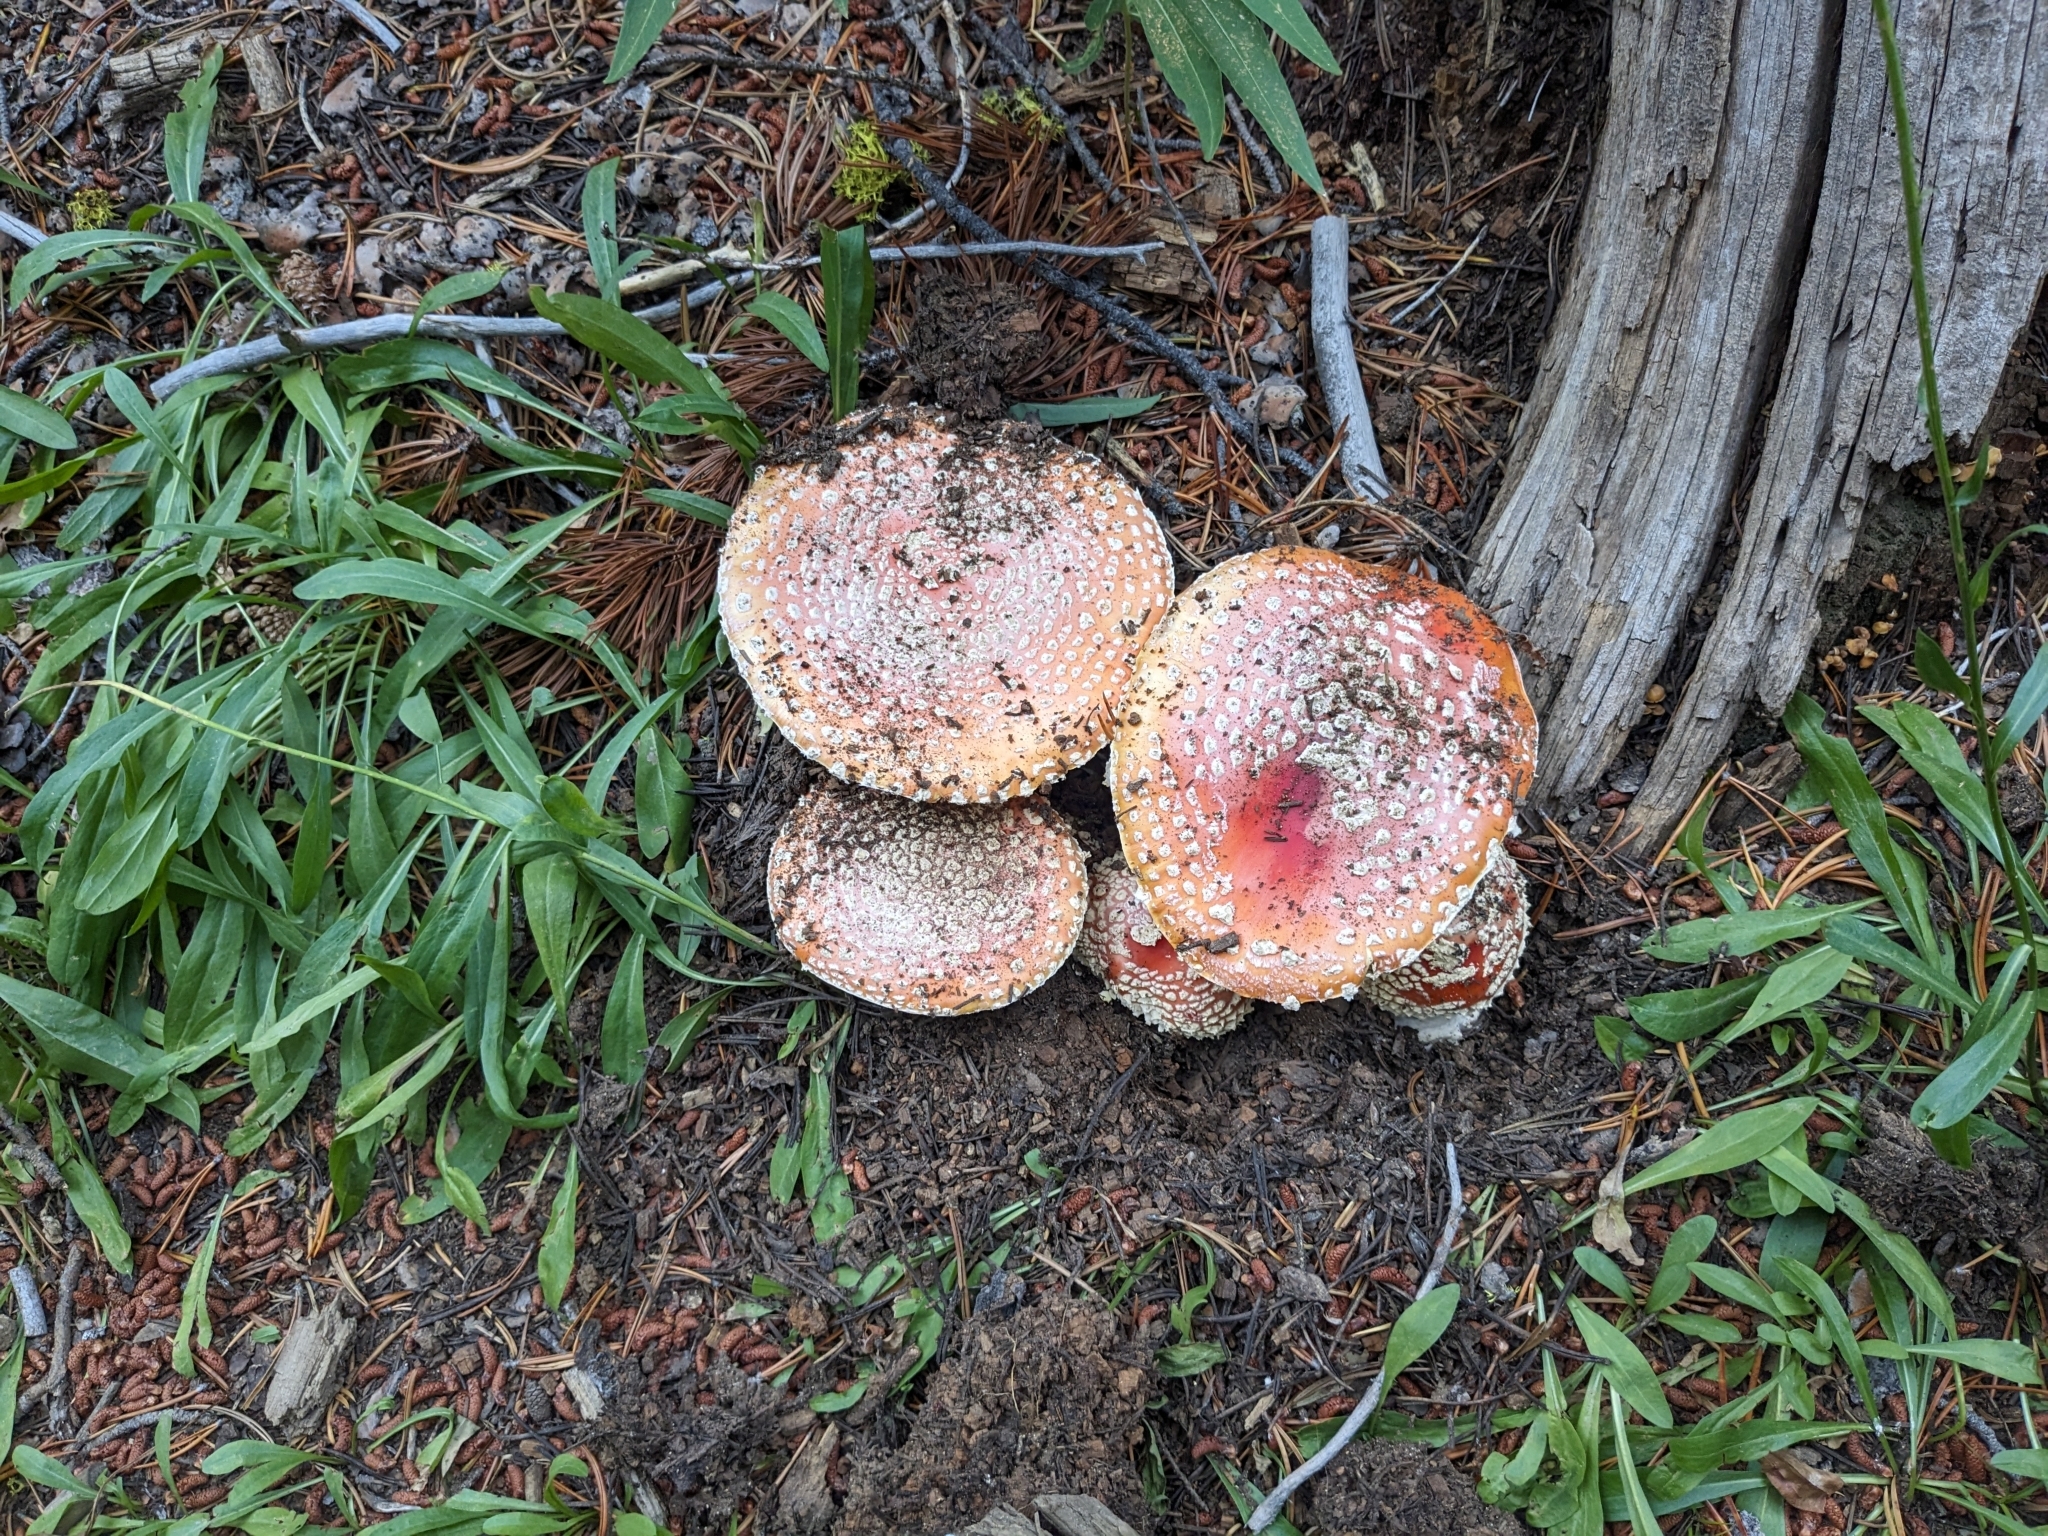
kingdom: Fungi
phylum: Basidiomycota
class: Agaricomycetes
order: Agaricales
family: Amanitaceae
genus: Amanita
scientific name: Amanita muscaria
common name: Fly agaric
